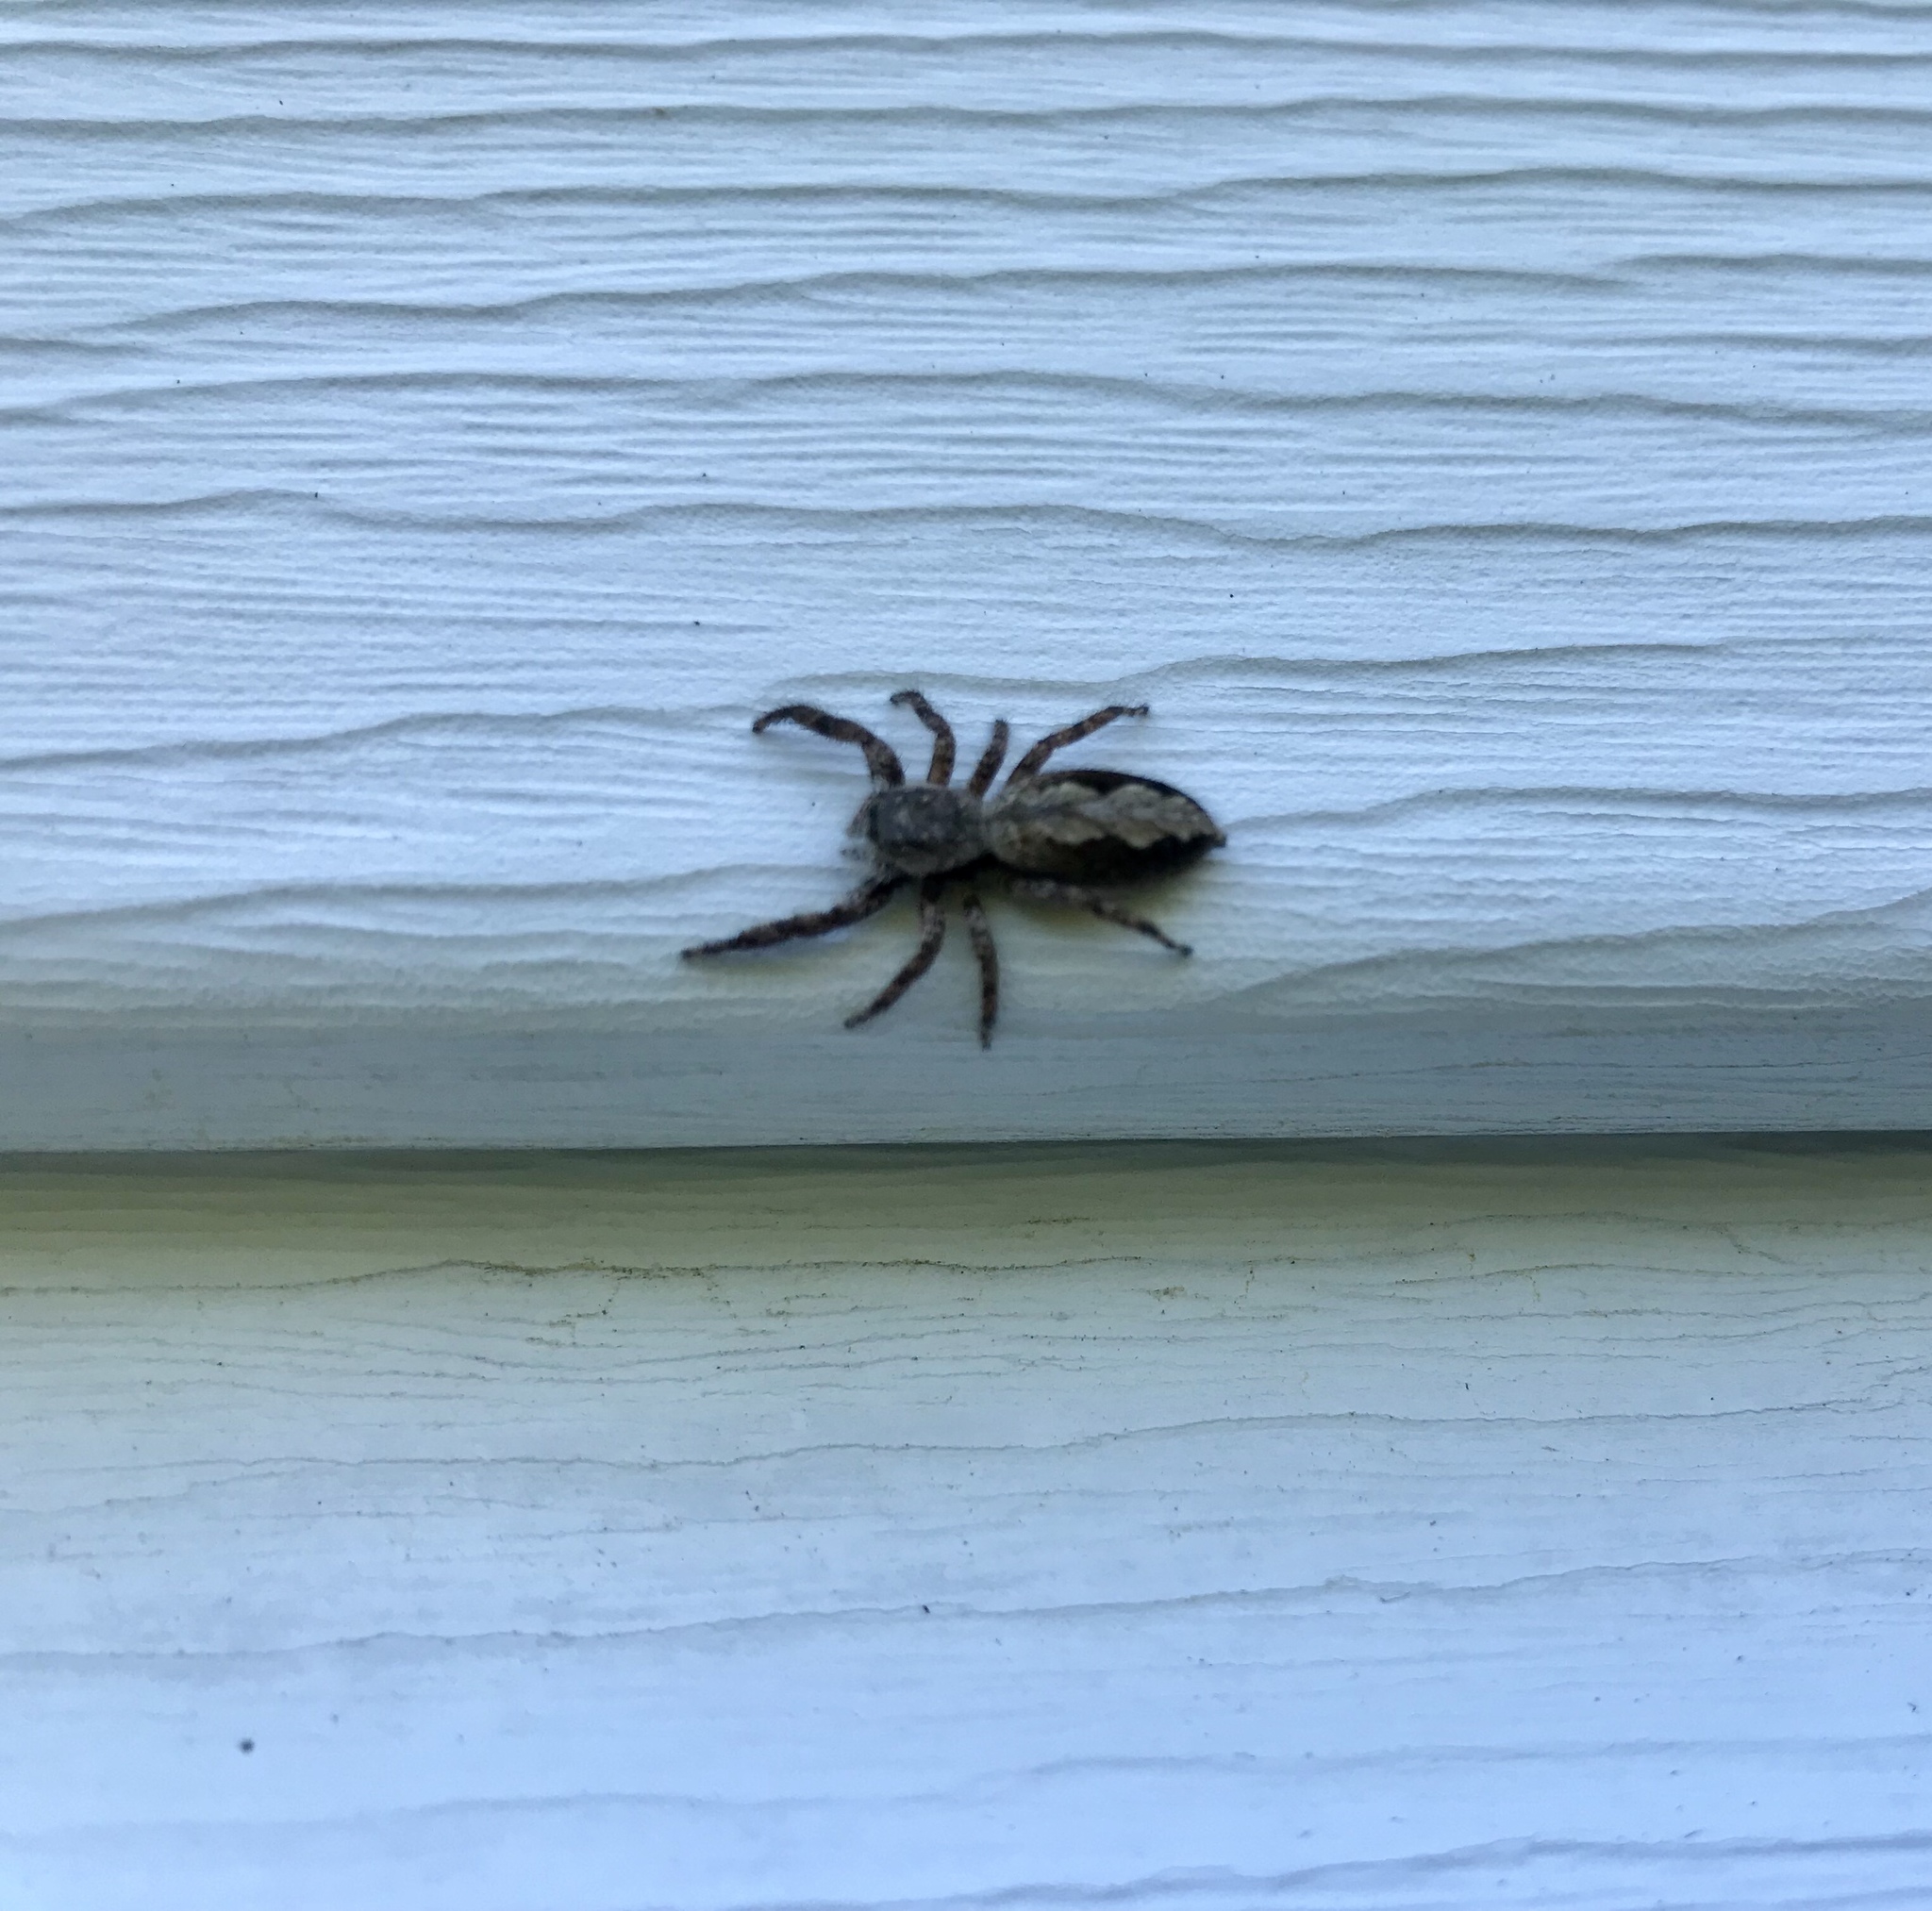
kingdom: Animalia
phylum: Arthropoda
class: Arachnida
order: Araneae
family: Salticidae
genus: Platycryptus
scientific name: Platycryptus undatus
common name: Tan jumping spider
